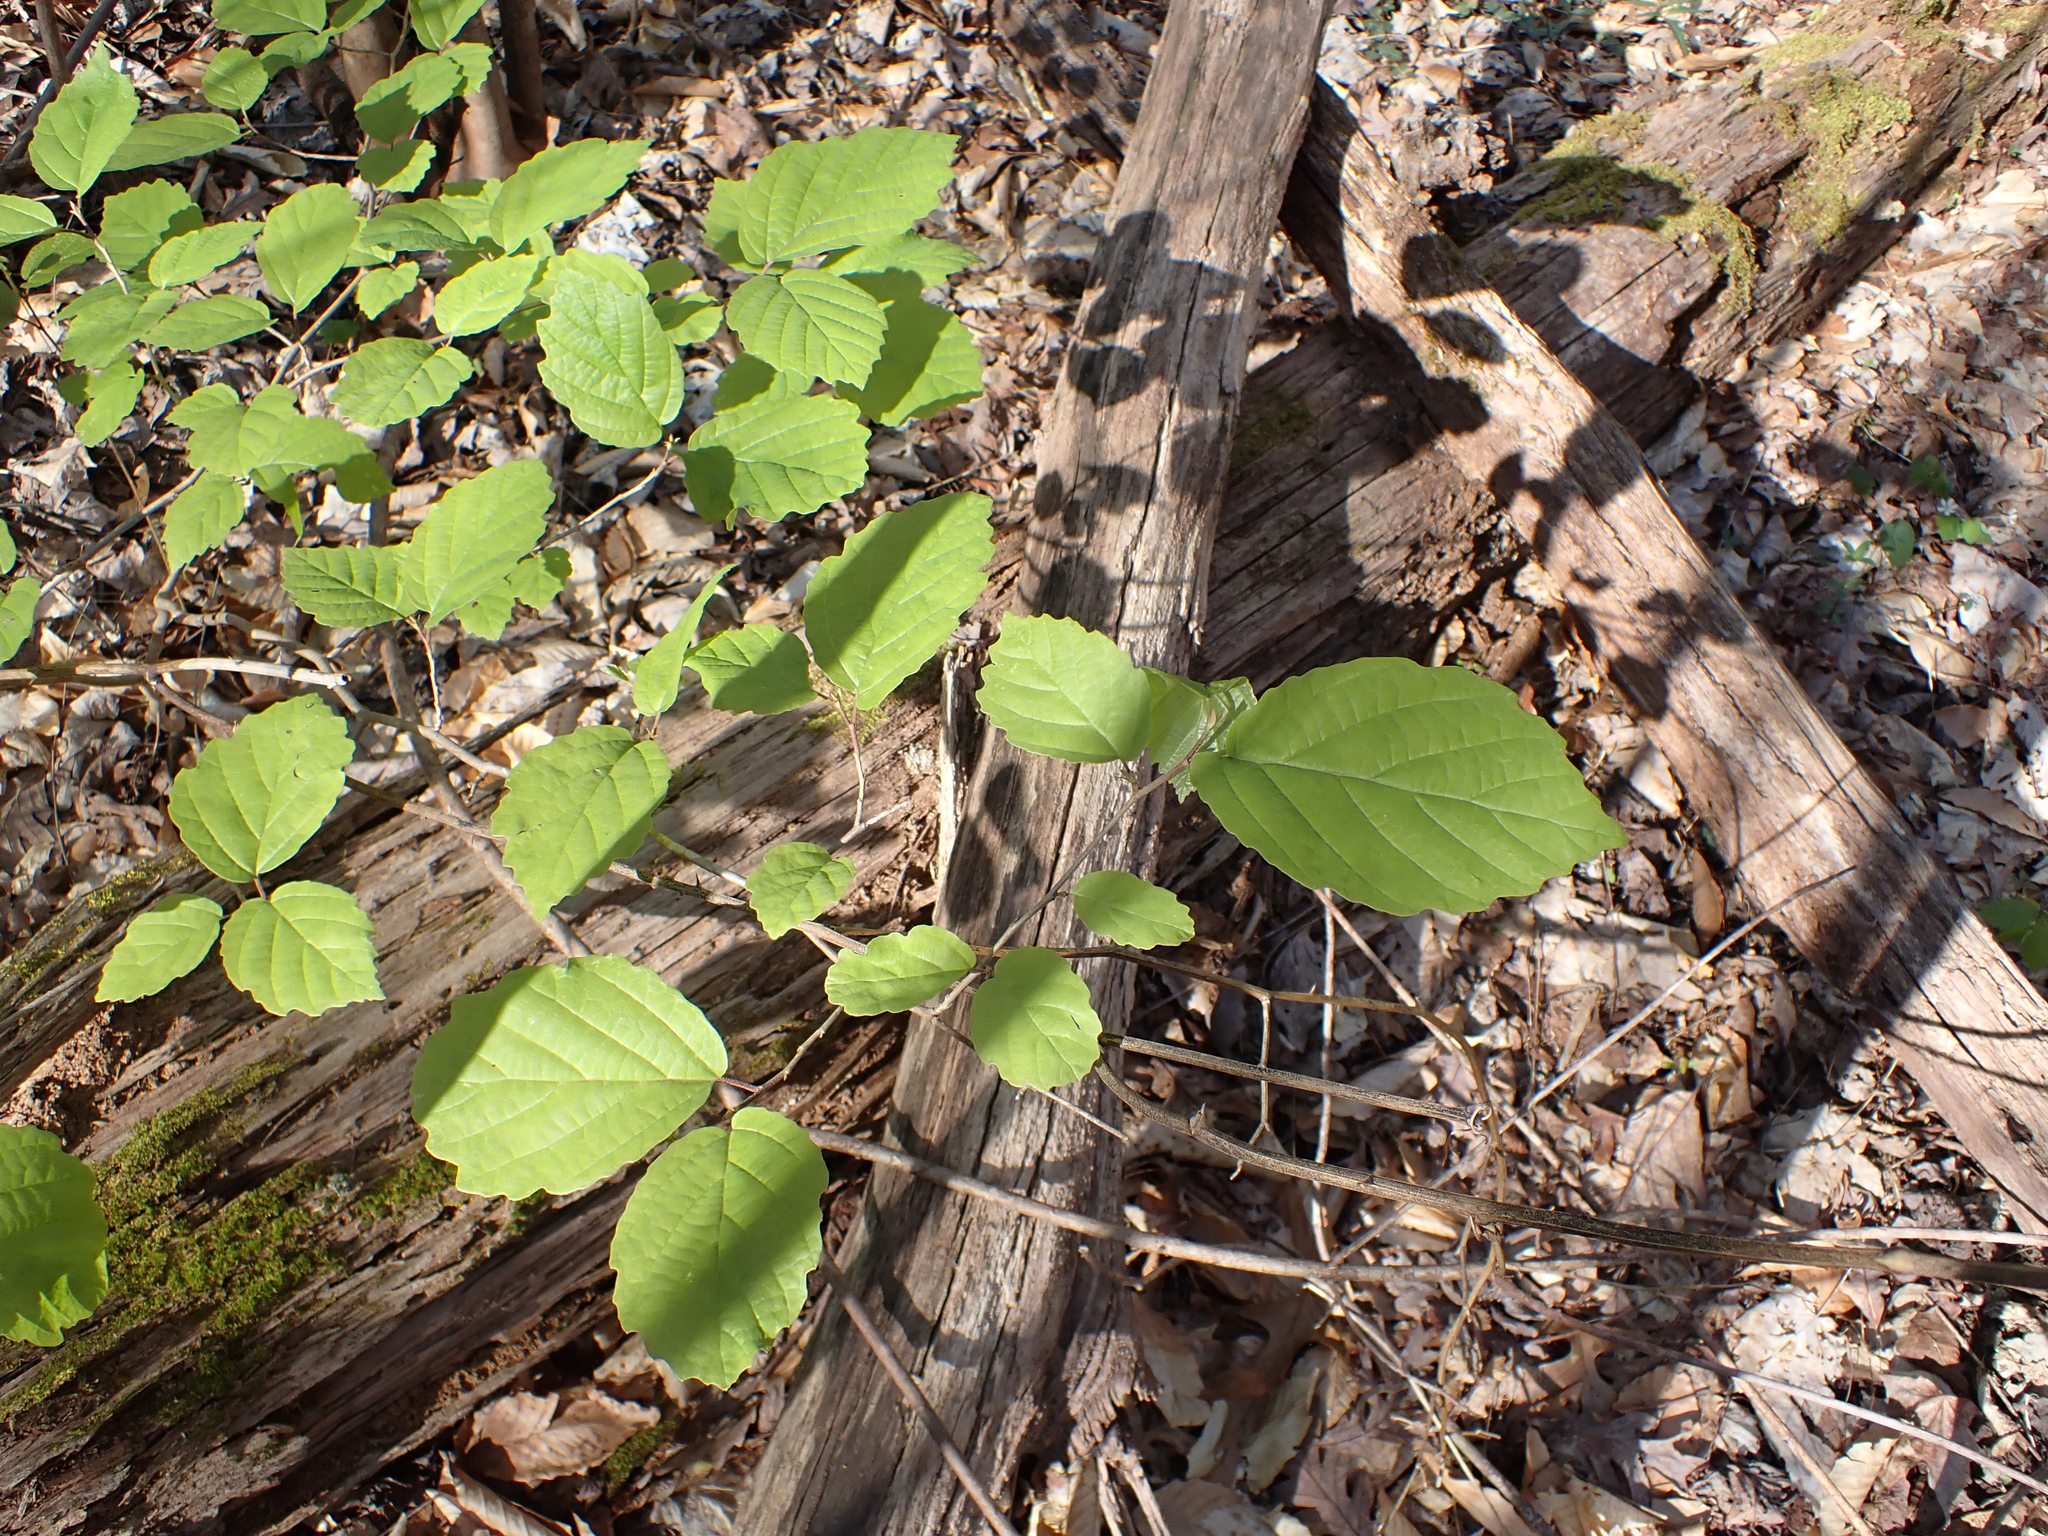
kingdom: Plantae
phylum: Tracheophyta
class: Magnoliopsida
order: Saxifragales
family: Hamamelidaceae
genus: Hamamelis
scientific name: Hamamelis virginiana
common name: Witch-hazel
